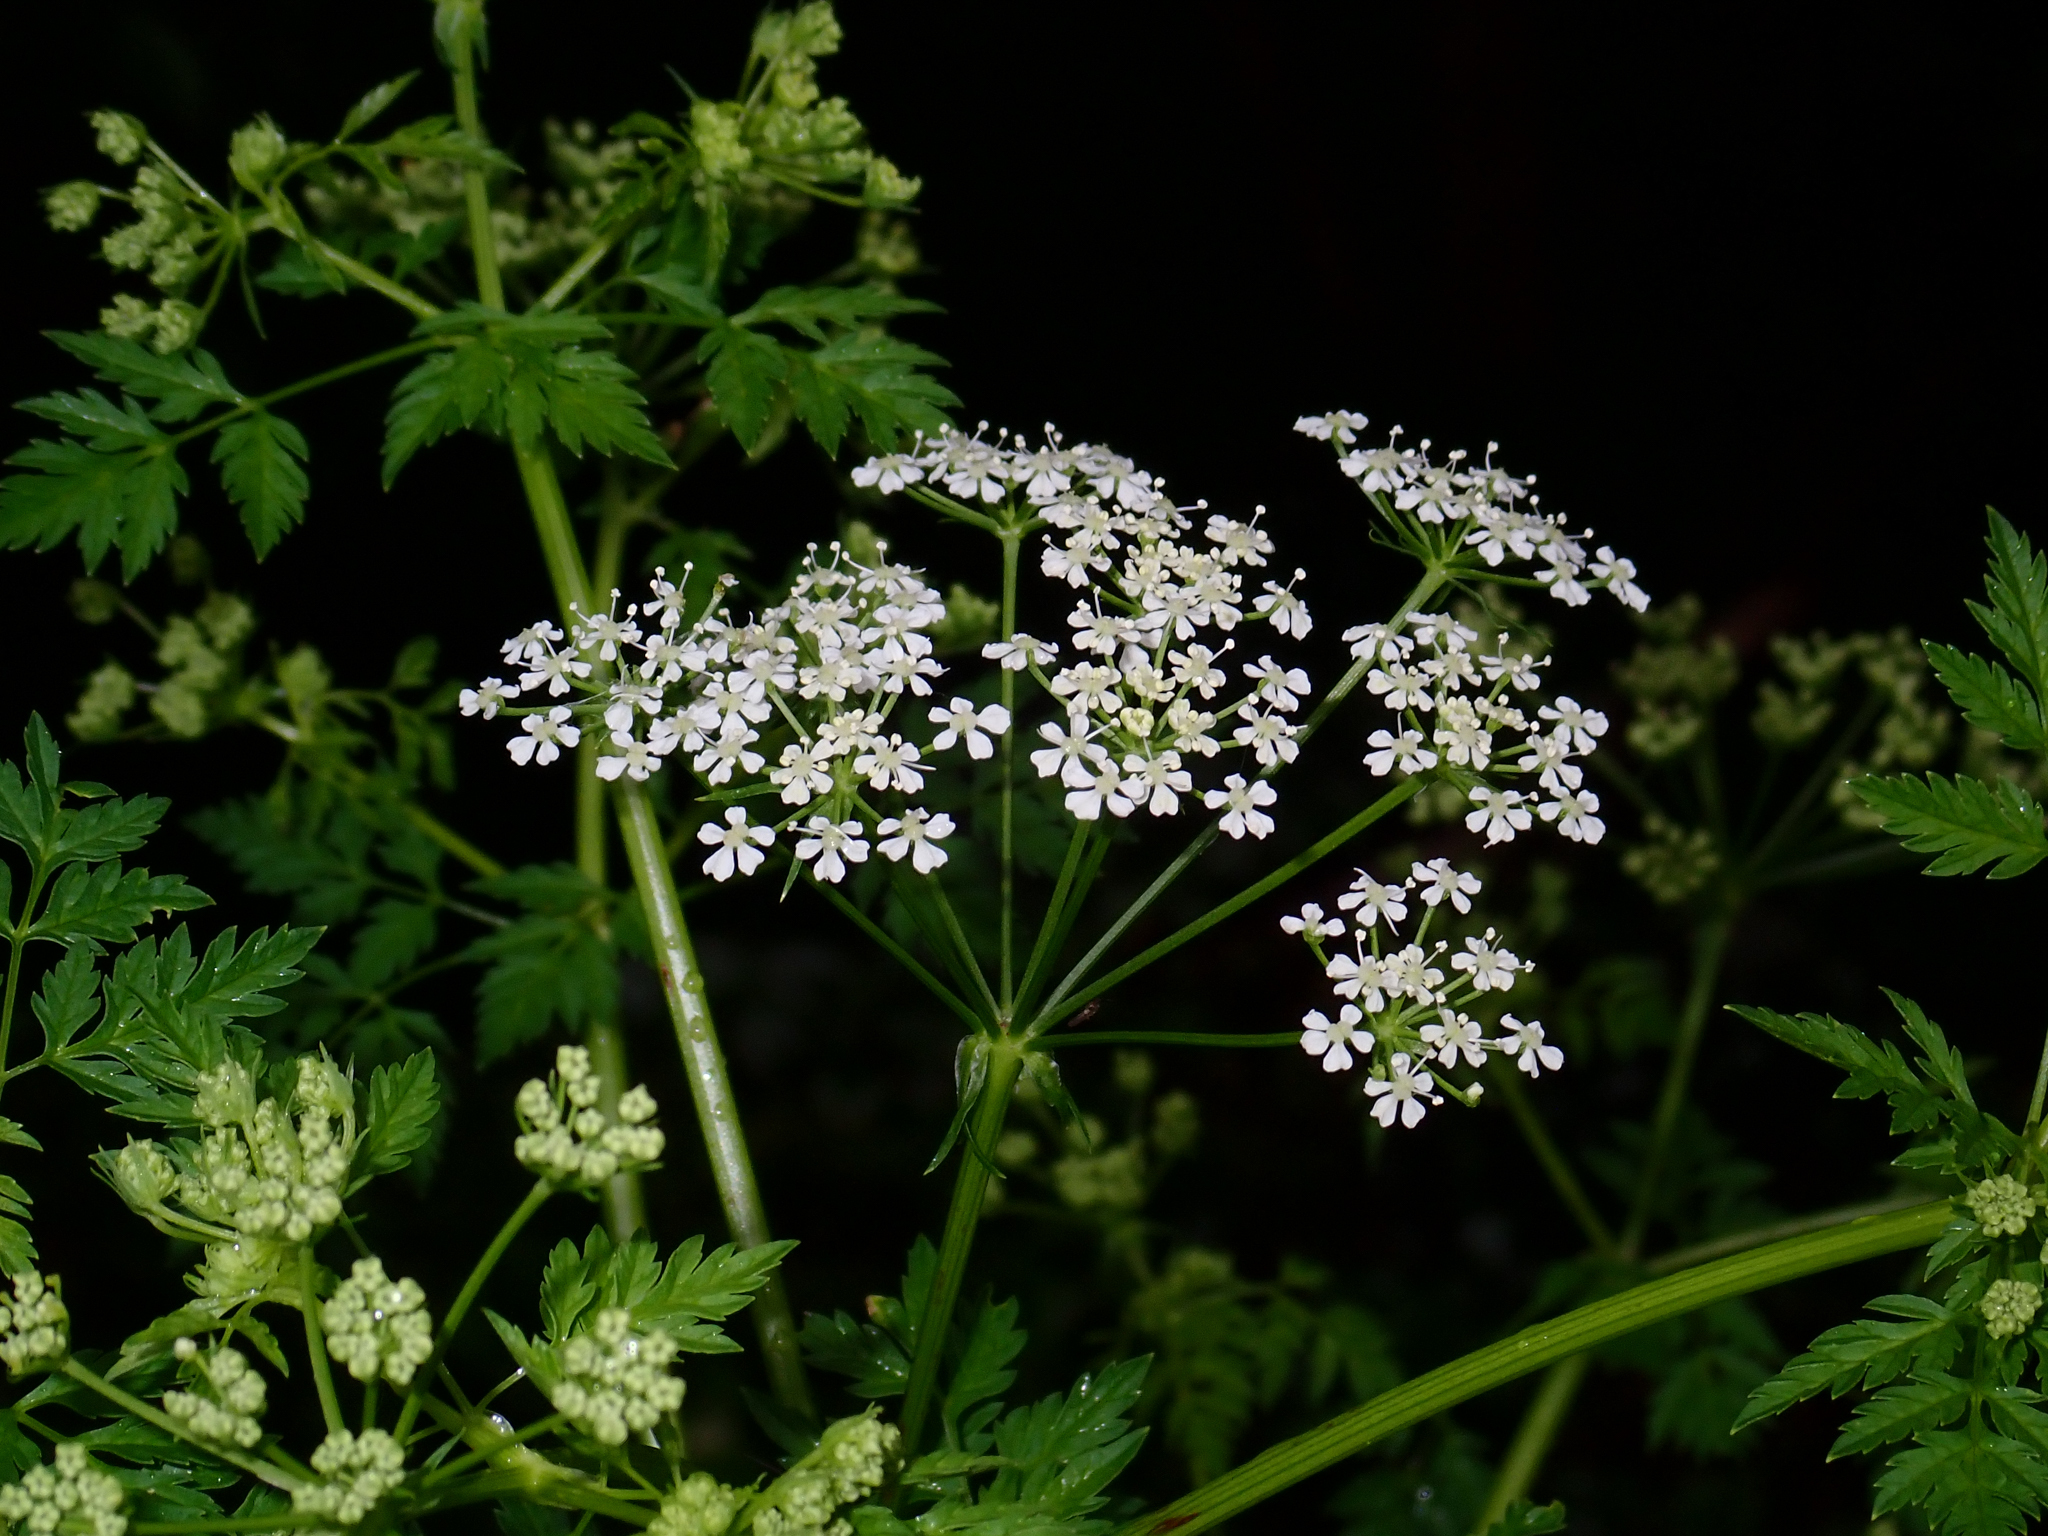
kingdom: Plantae
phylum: Tracheophyta
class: Magnoliopsida
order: Apiales
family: Apiaceae
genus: Conium
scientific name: Conium maculatum
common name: Hemlock
